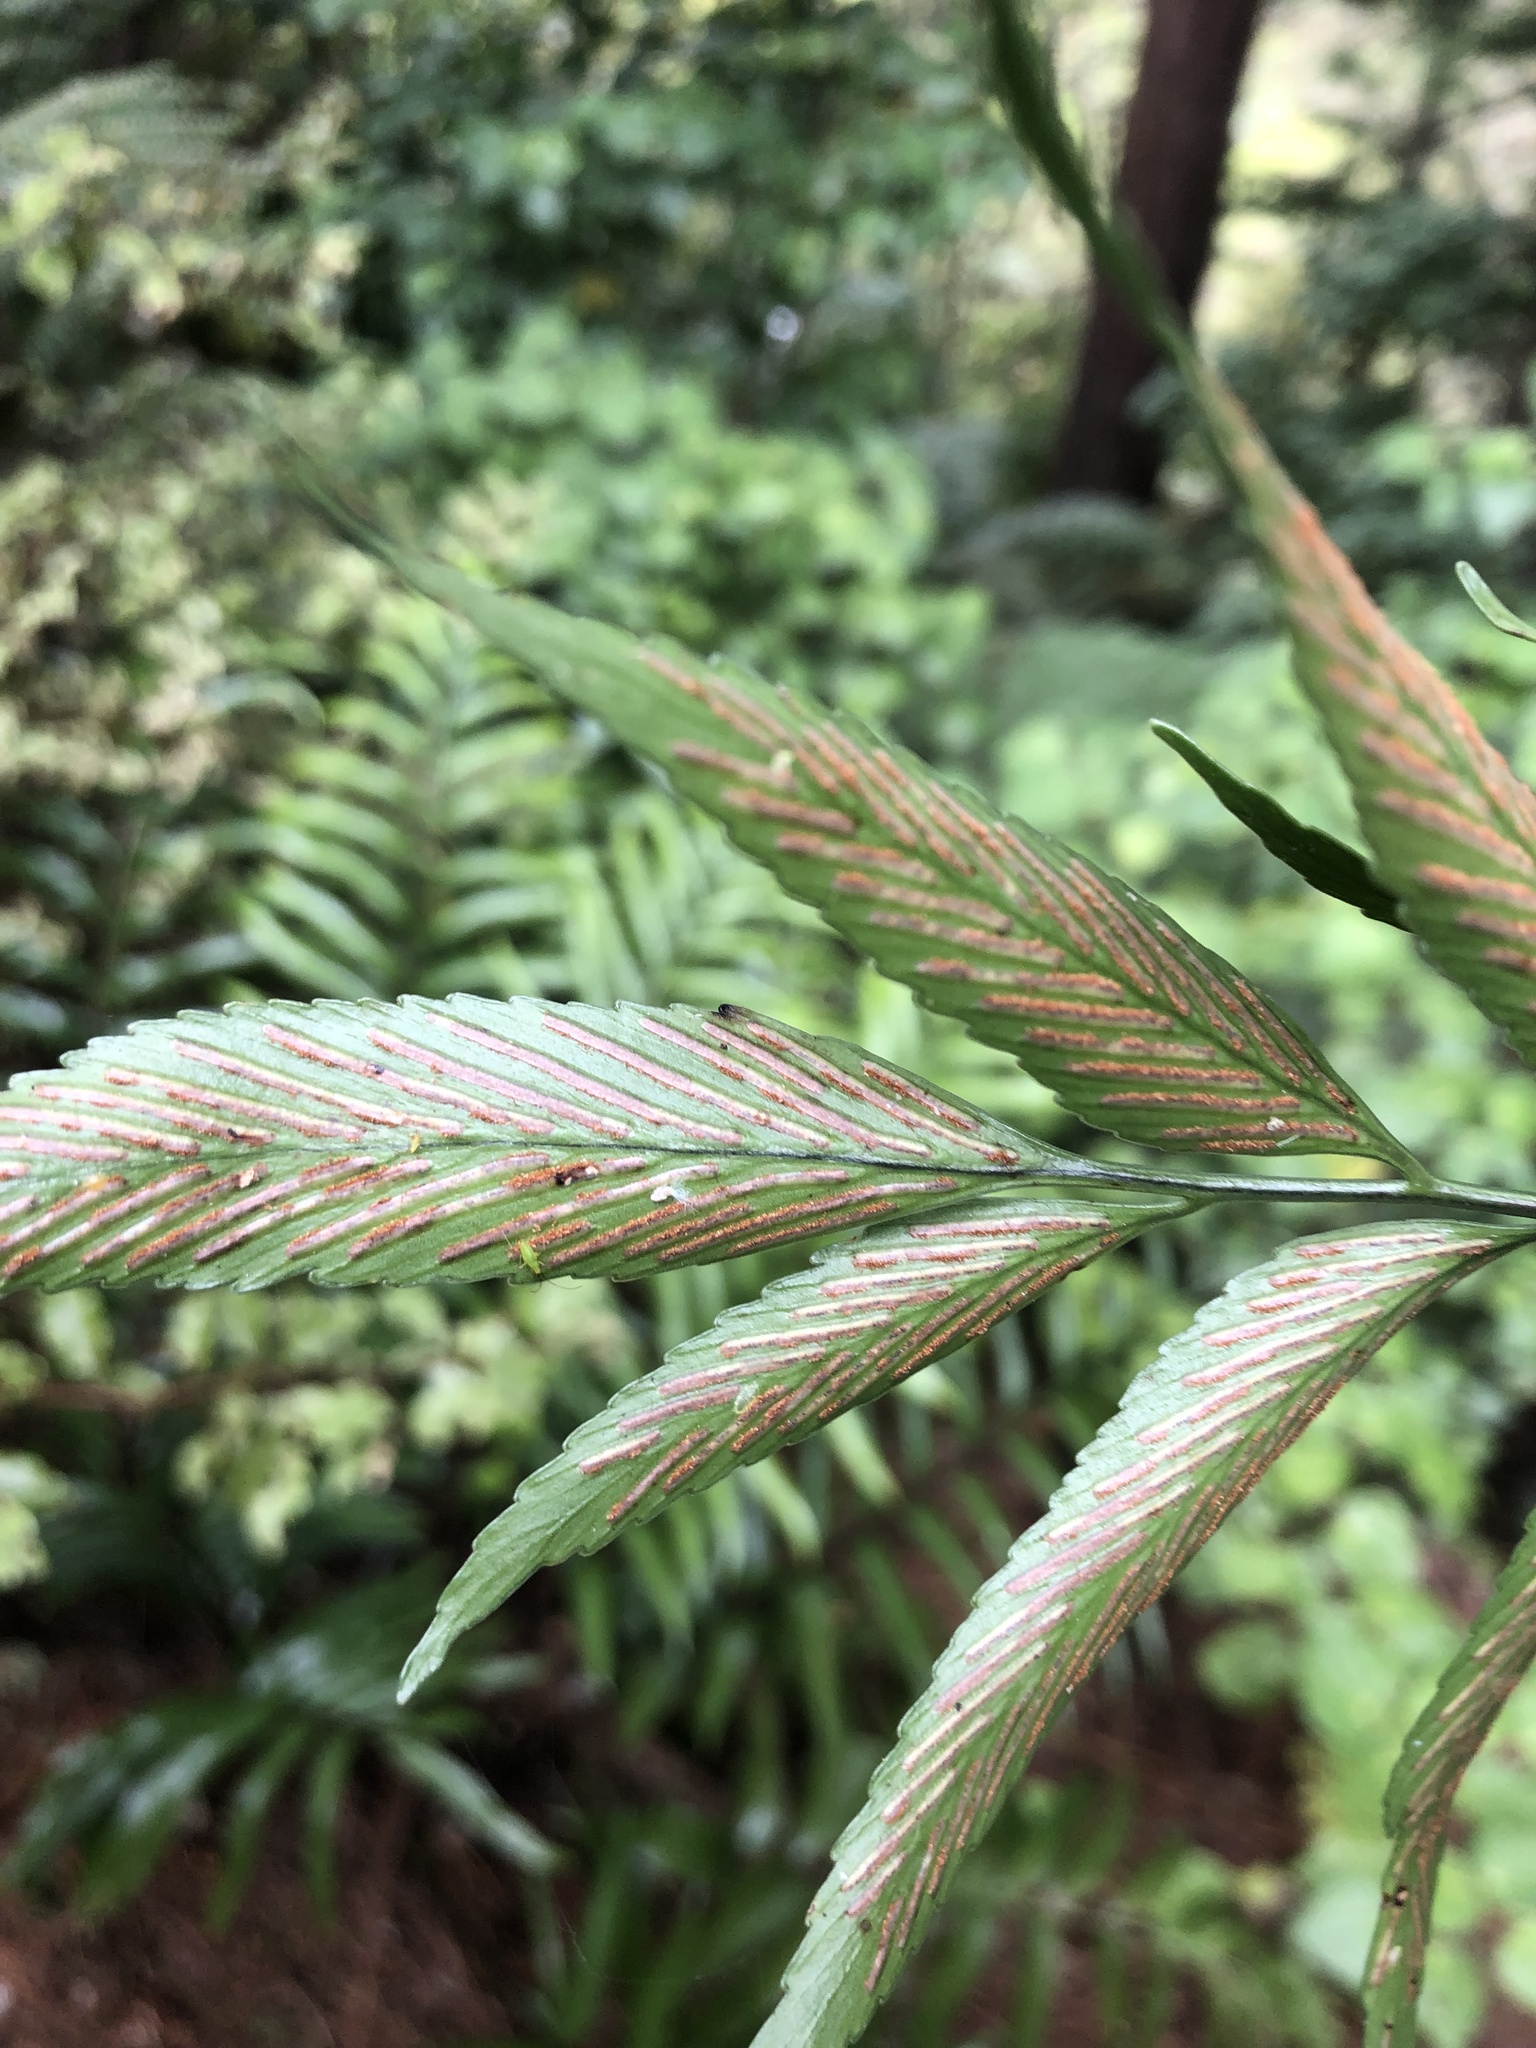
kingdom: Plantae
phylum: Tracheophyta
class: Polypodiopsida
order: Polypodiales
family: Aspleniaceae
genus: Asplenium
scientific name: Asplenium oblongifolium
